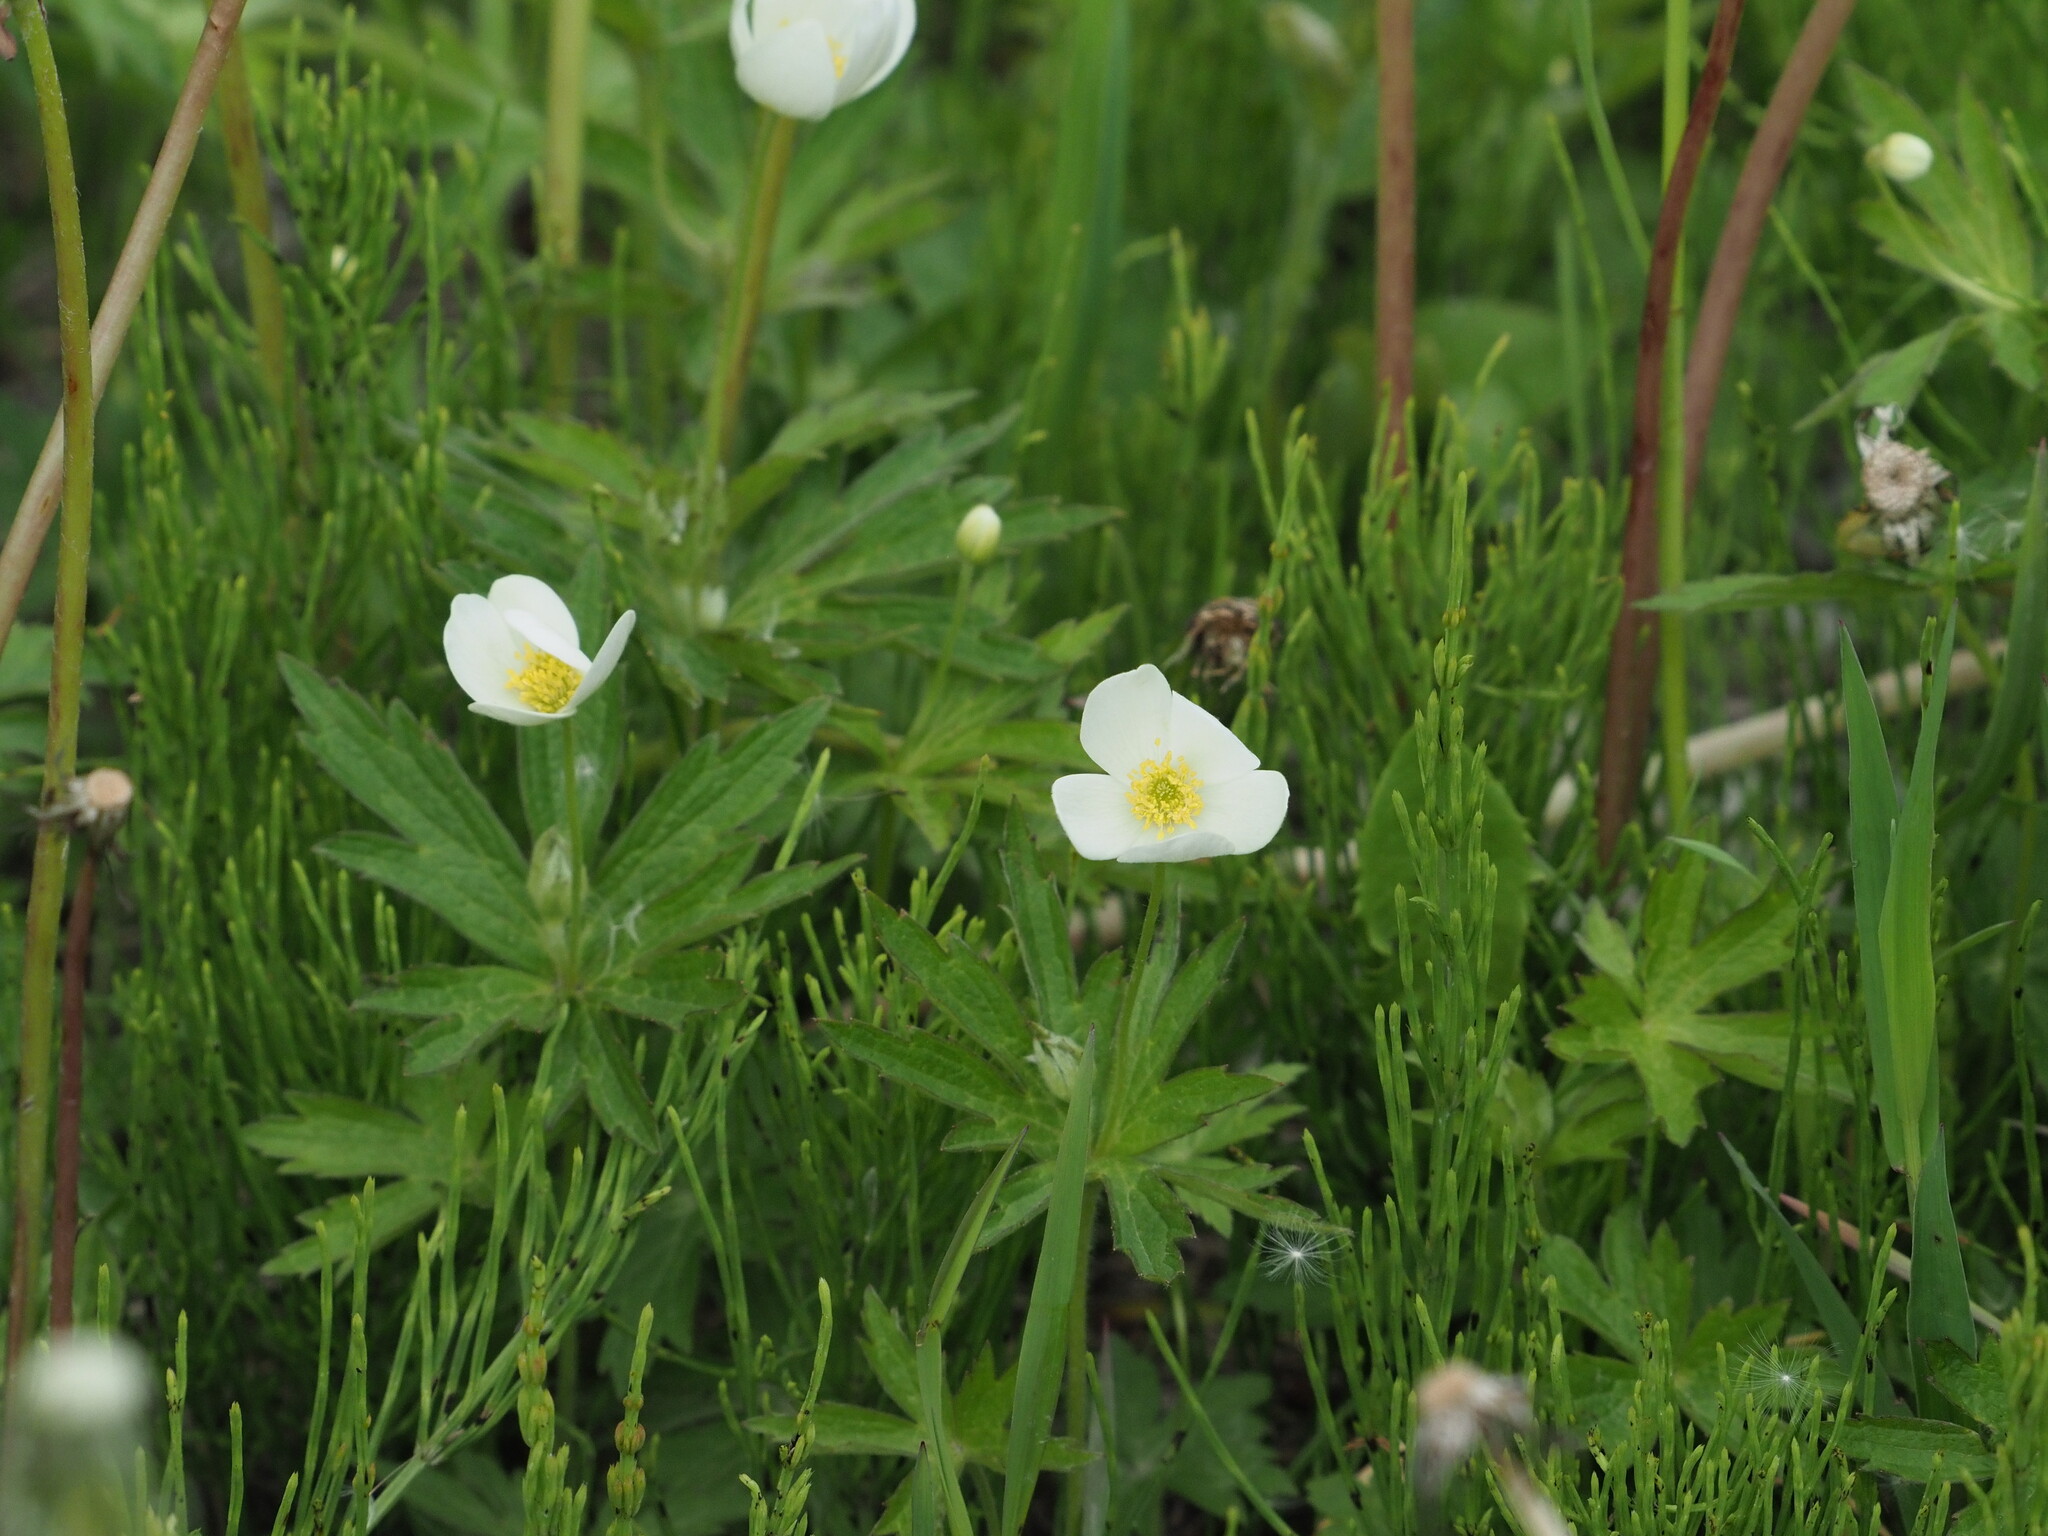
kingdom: Plantae
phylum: Tracheophyta
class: Magnoliopsida
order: Ranunculales
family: Ranunculaceae
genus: Anemonastrum
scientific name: Anemonastrum canadense
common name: Canada anemone
